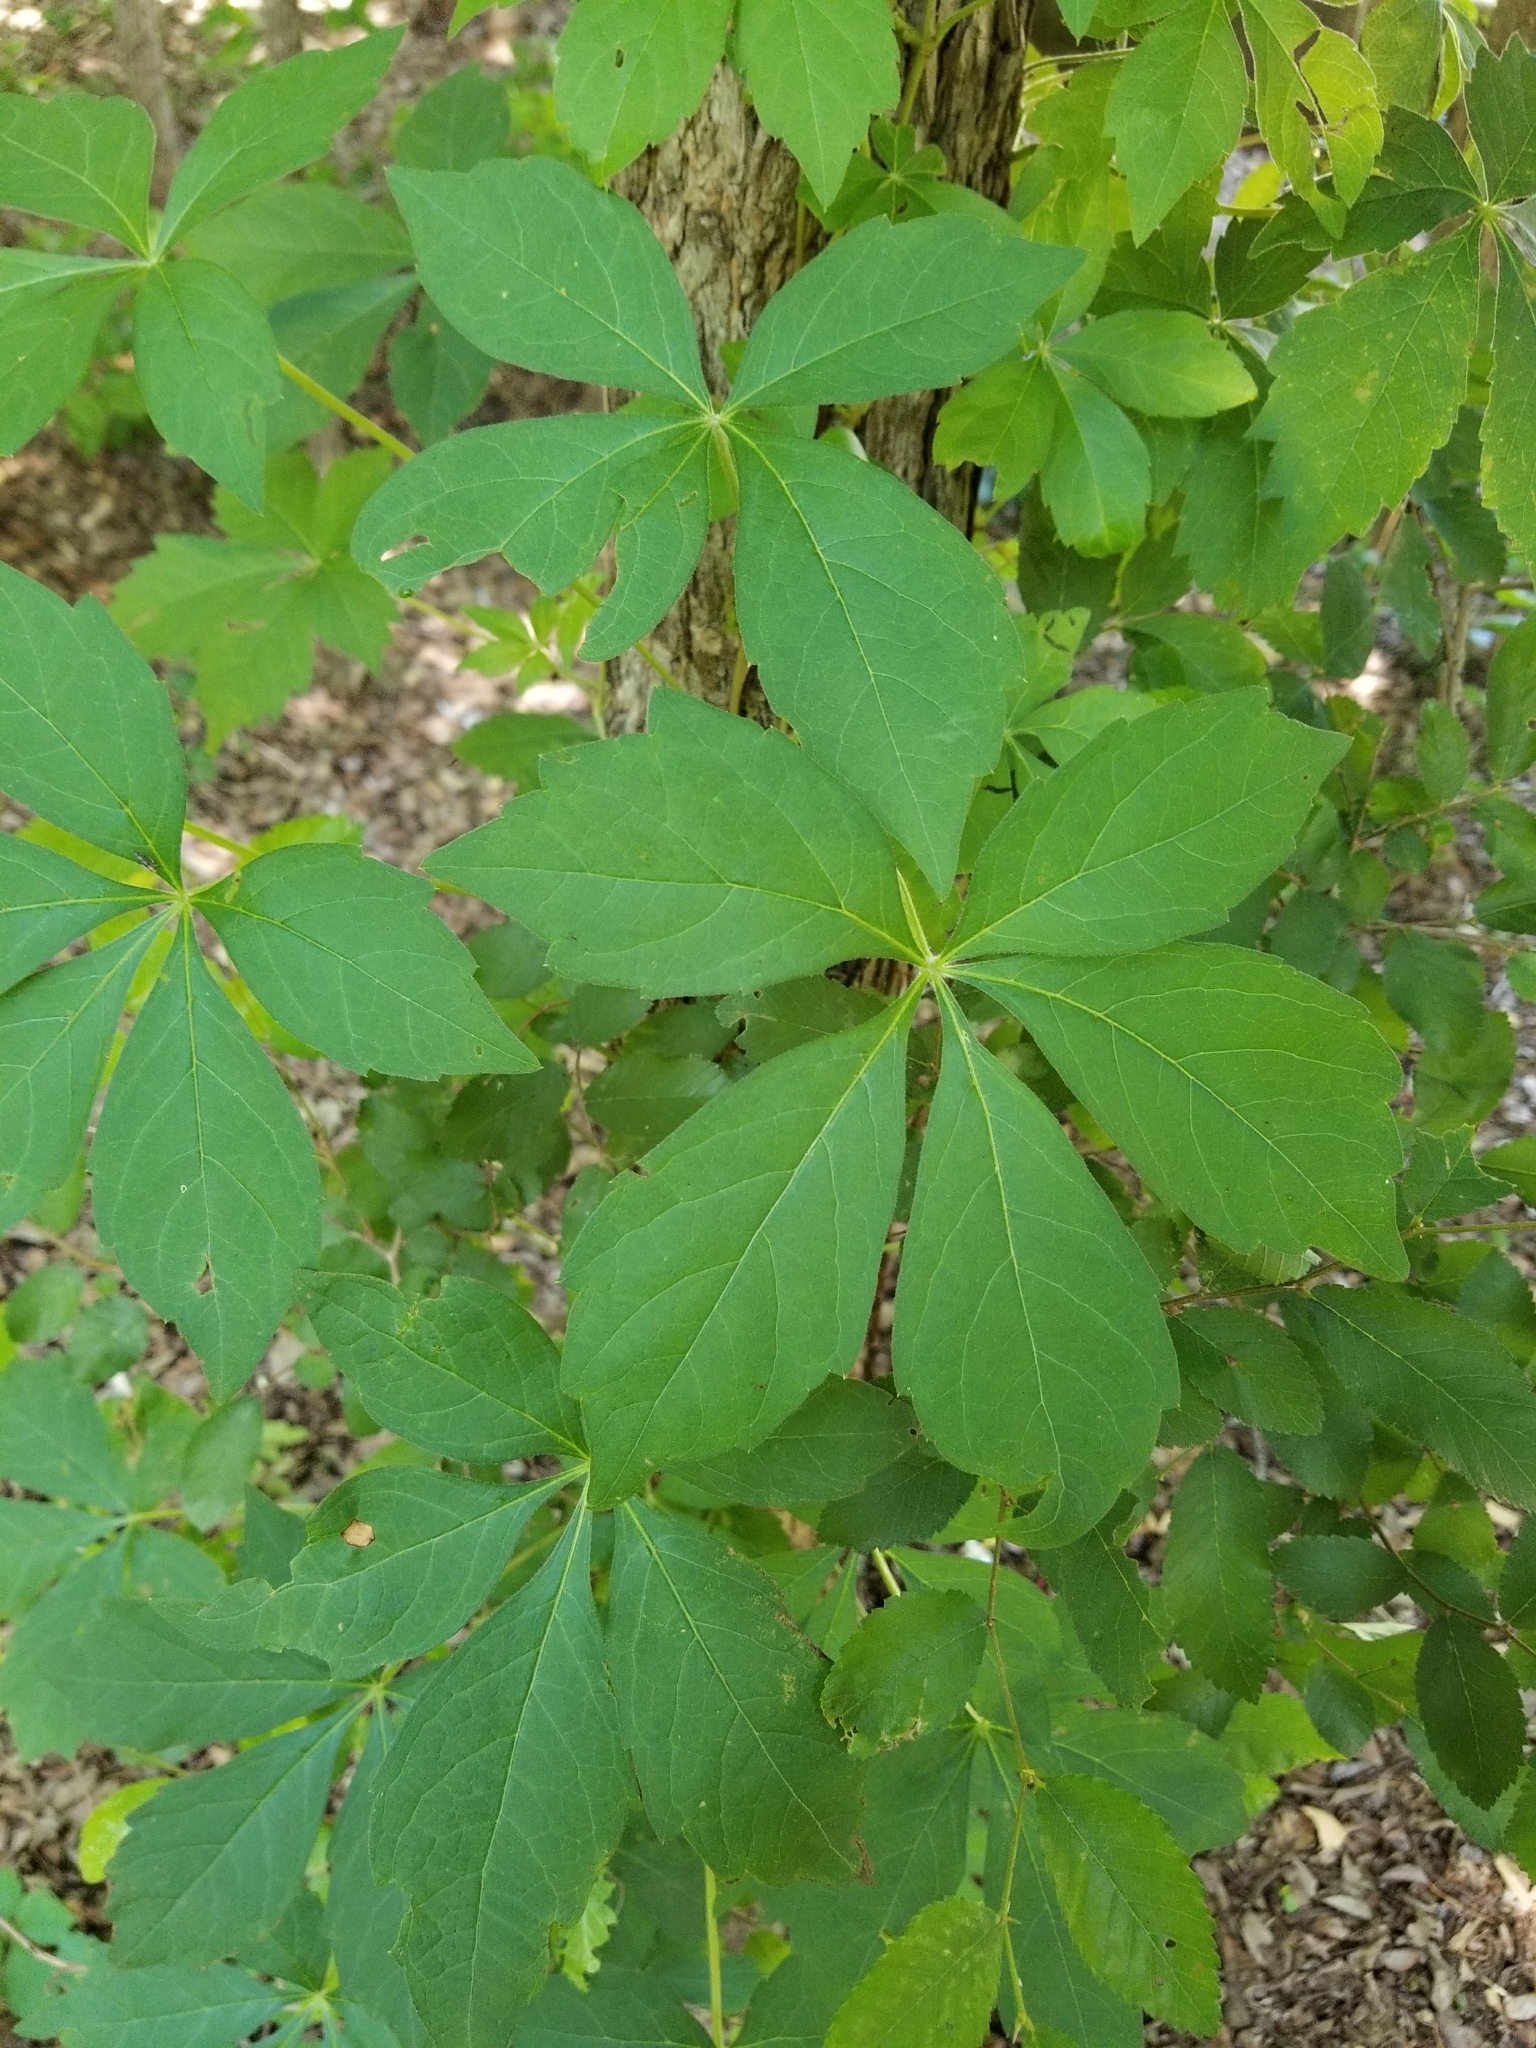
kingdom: Plantae
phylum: Tracheophyta
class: Magnoliopsida
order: Vitales
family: Vitaceae
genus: Parthenocissus
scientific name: Parthenocissus quinquefolia
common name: Virginia-creeper
